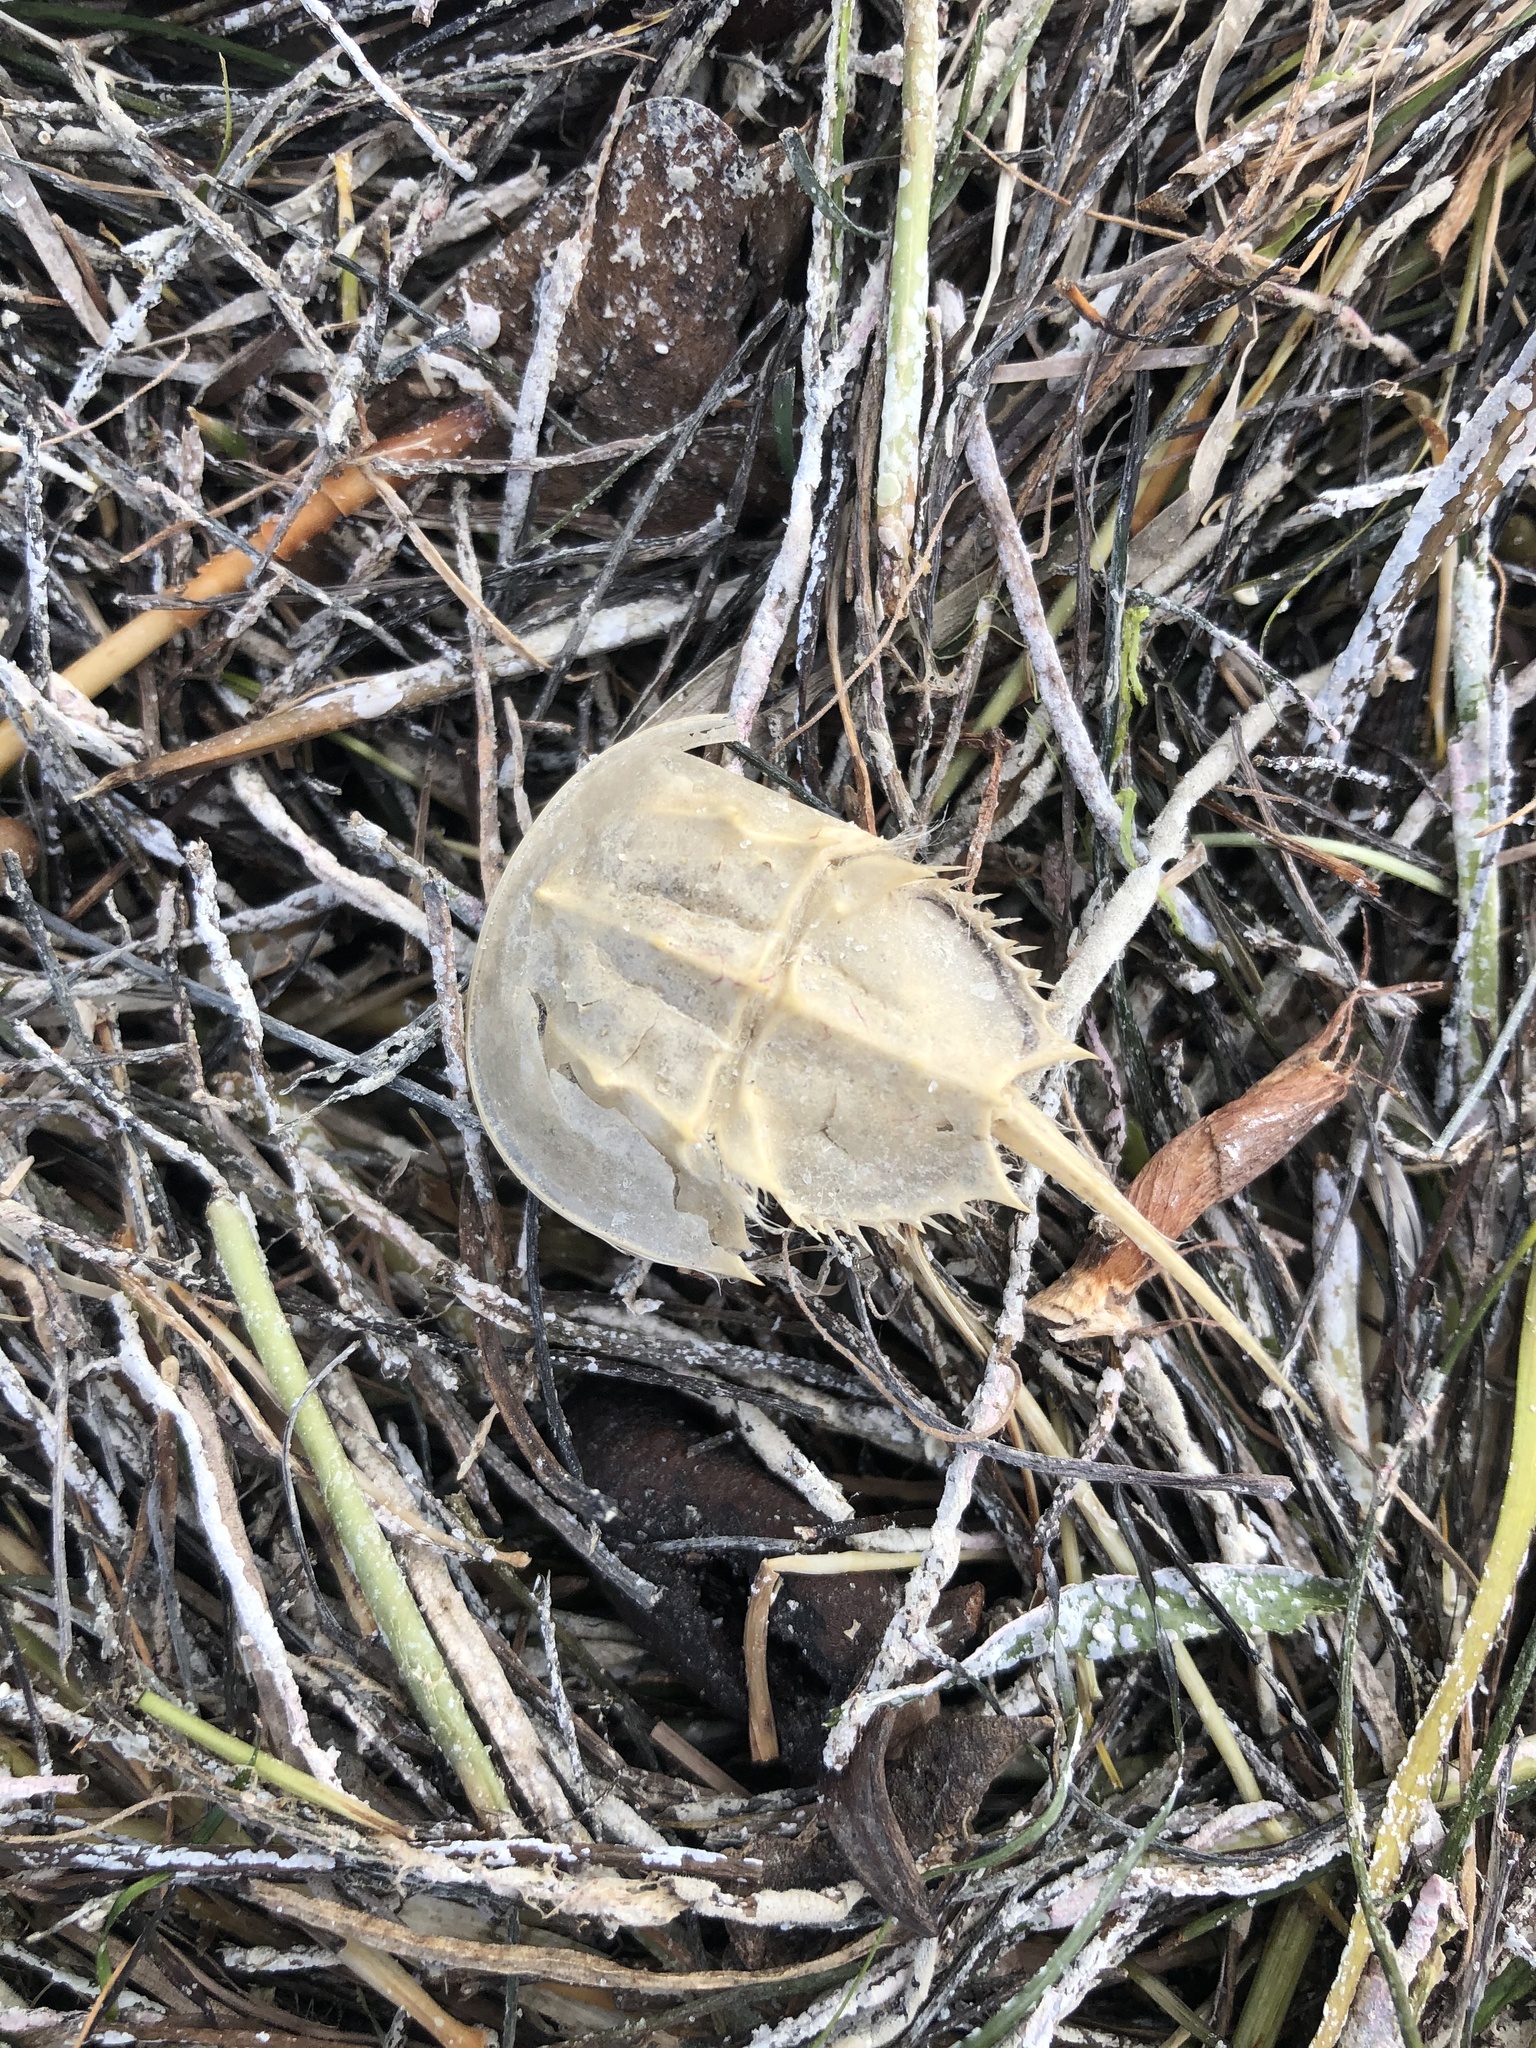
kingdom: Animalia
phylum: Arthropoda
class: Merostomata
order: Xiphosurida
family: Limulidae
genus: Limulus
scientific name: Limulus polyphemus
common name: Horseshoe crab
